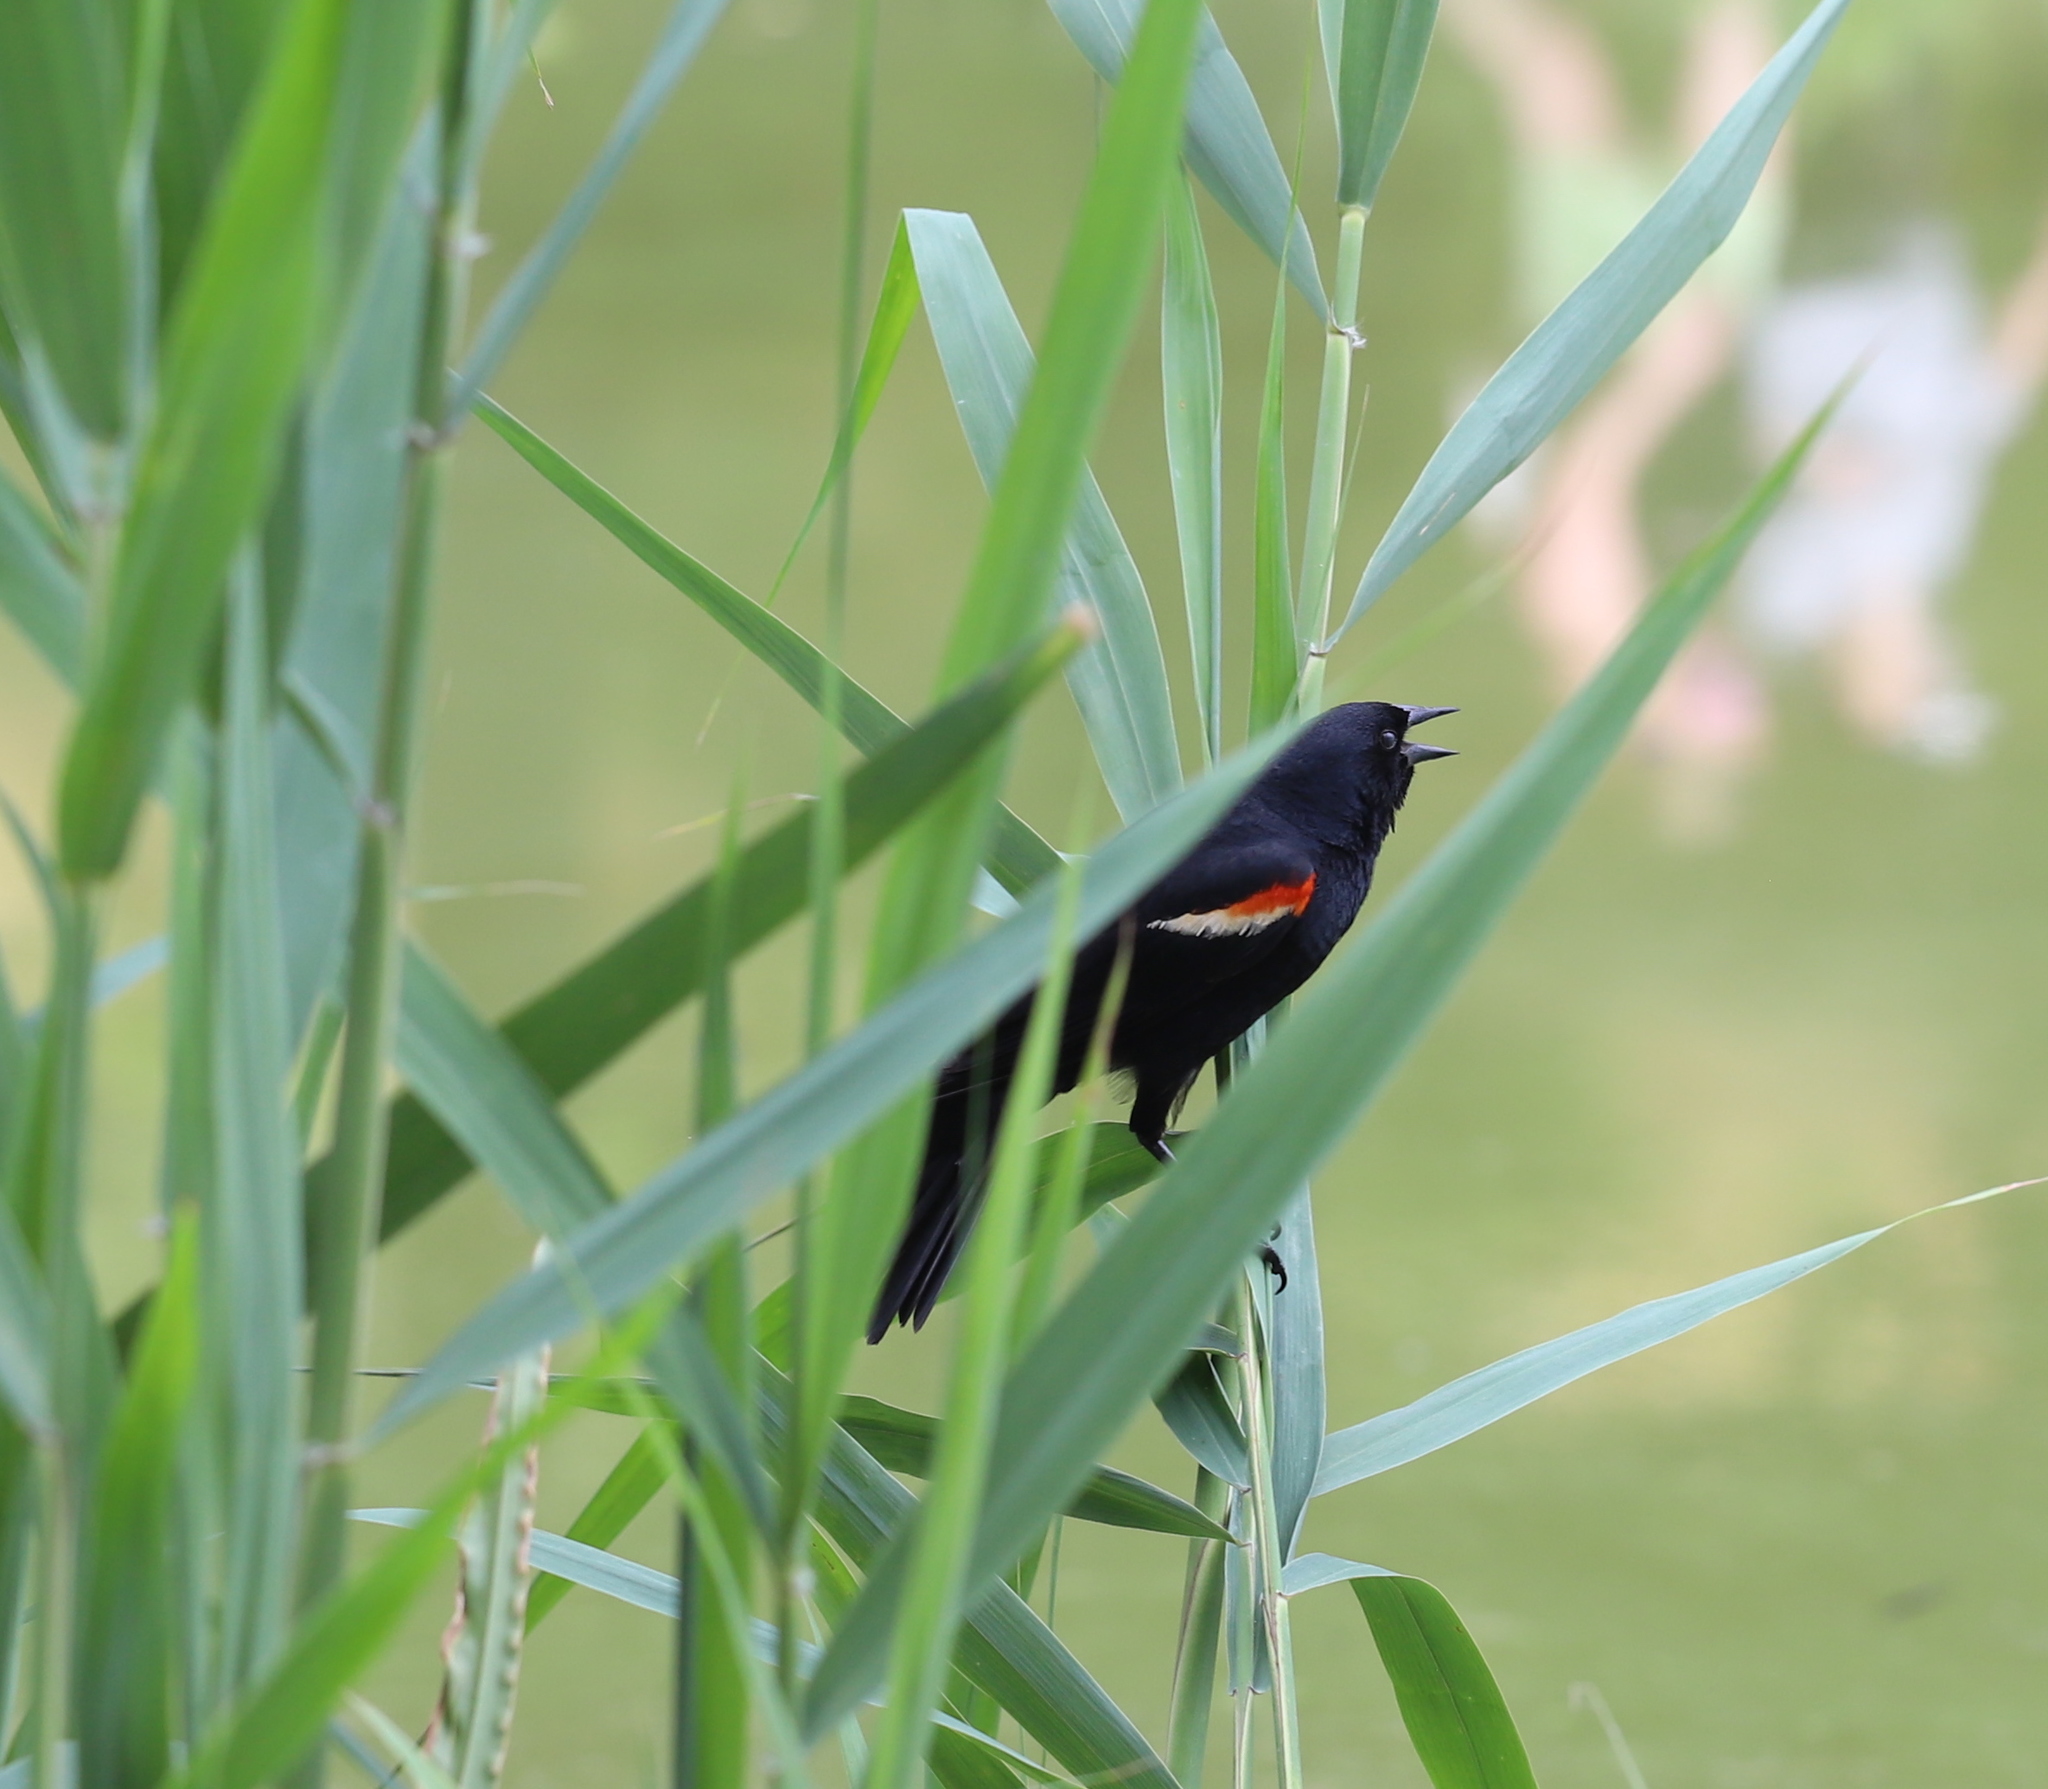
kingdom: Animalia
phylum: Chordata
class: Aves
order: Passeriformes
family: Icteridae
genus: Agelaius
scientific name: Agelaius phoeniceus
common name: Red-winged blackbird
